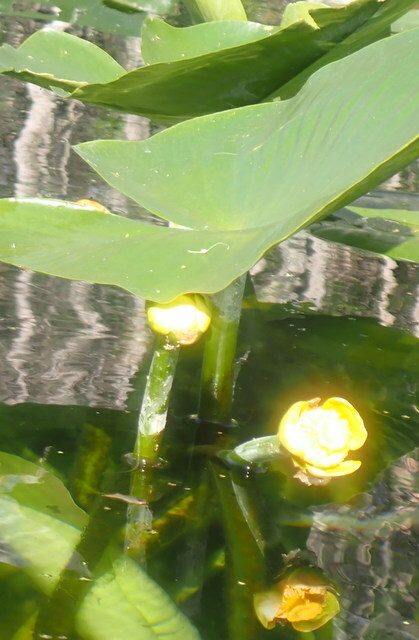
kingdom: Plantae
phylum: Tracheophyta
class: Magnoliopsida
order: Nymphaeales
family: Nymphaeaceae
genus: Nuphar
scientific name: Nuphar advena
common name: Spatter-dock
